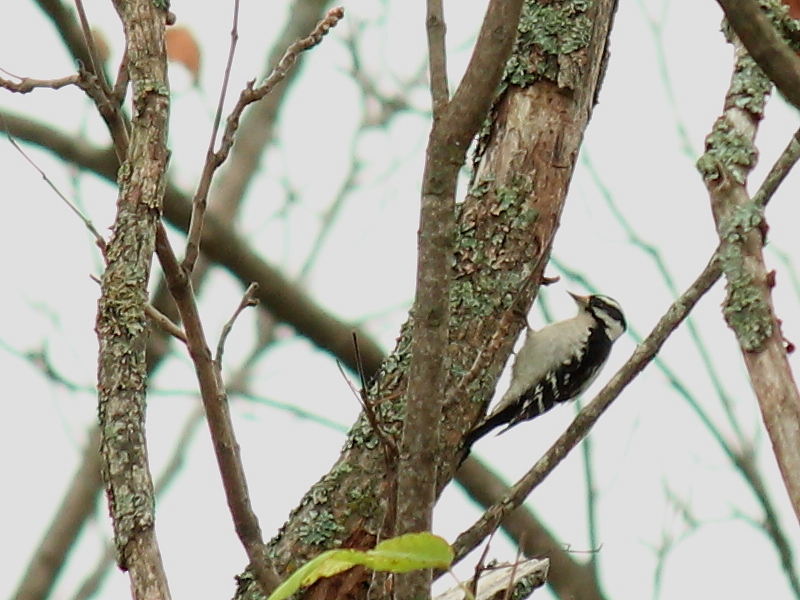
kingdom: Animalia
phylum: Chordata
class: Aves
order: Piciformes
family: Picidae
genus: Dryobates
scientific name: Dryobates pubescens
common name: Downy woodpecker
